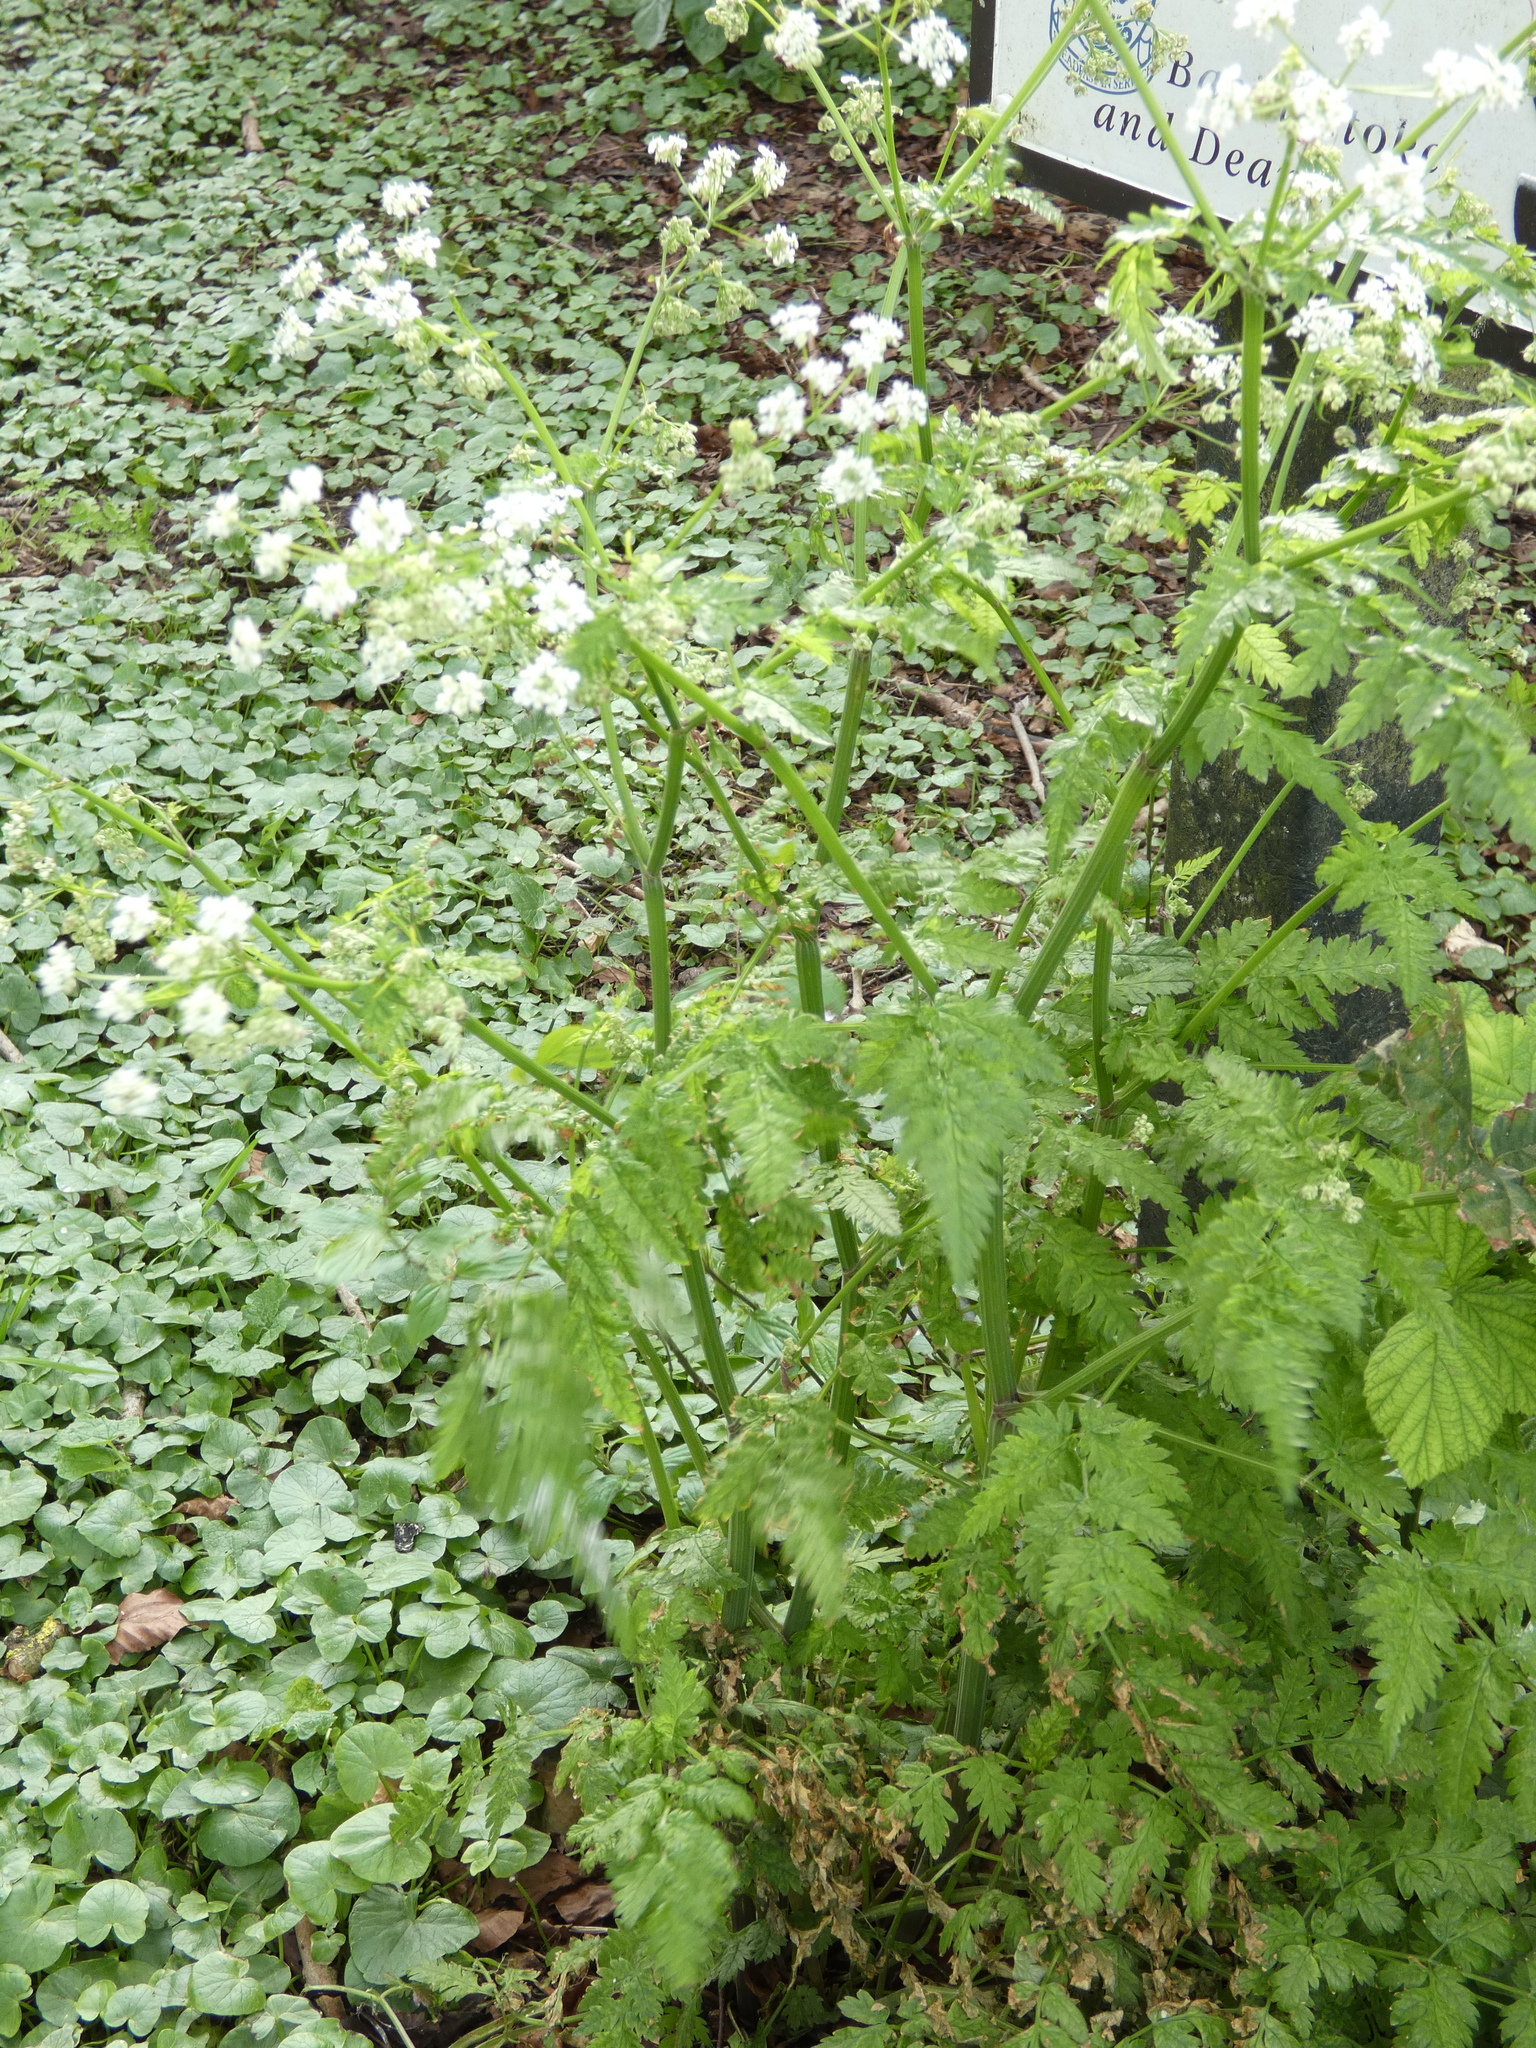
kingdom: Plantae
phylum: Tracheophyta
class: Magnoliopsida
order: Apiales
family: Apiaceae
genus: Anthriscus
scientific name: Anthriscus sylvestris
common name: Cow parsley
